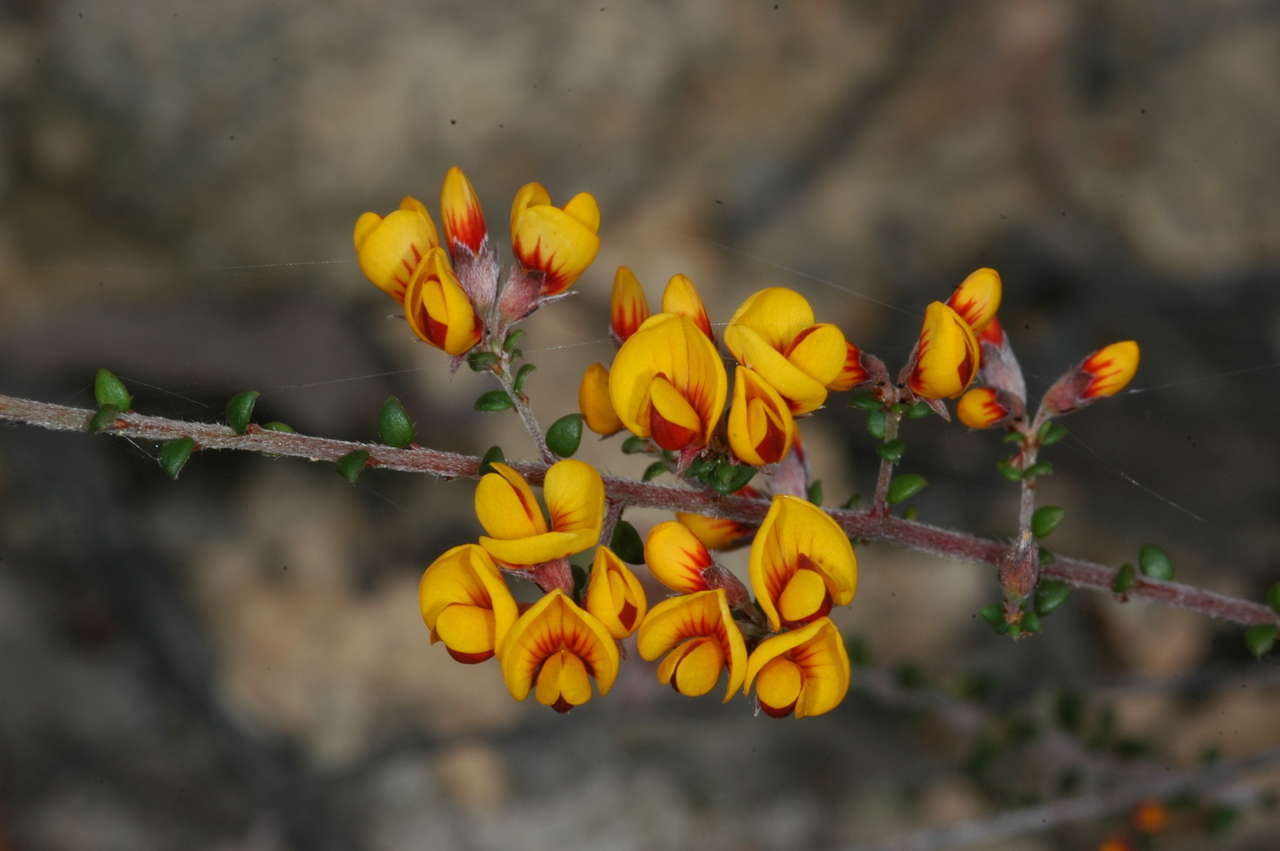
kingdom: Plantae
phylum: Tracheophyta
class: Magnoliopsida
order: Fabales
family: Fabaceae
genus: Pultenaea
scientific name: Pultenaea gunnii
